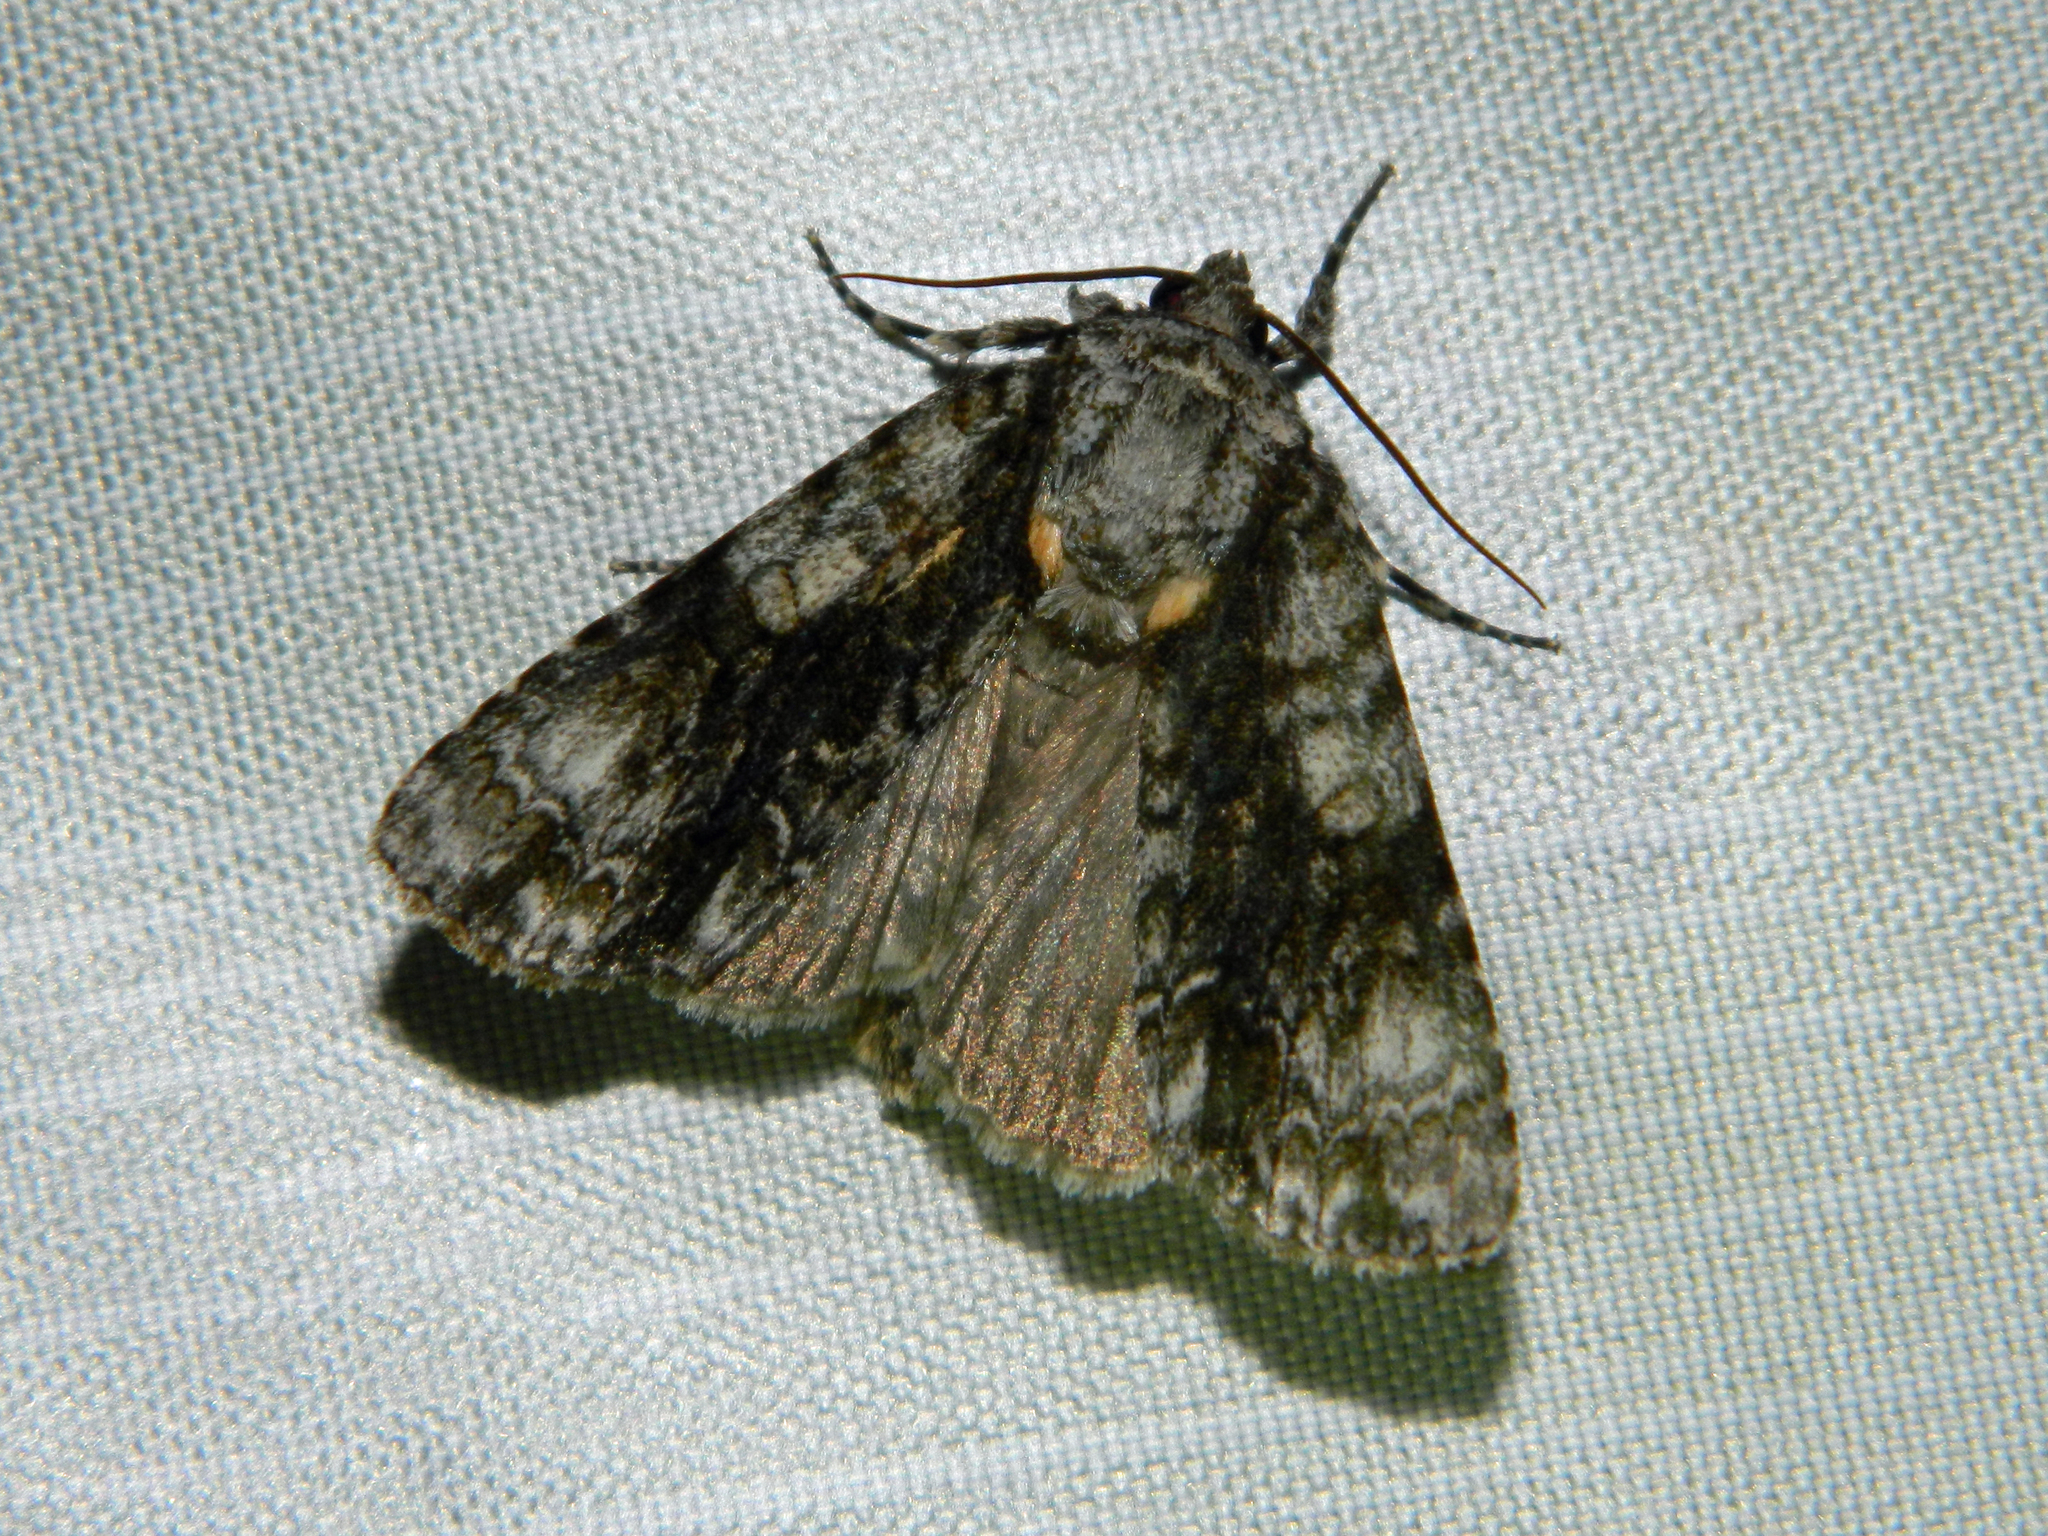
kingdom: Animalia
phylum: Arthropoda
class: Insecta
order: Lepidoptera
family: Noctuidae
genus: Acronicta
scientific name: Acronicta superans
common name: Splendid dagger
